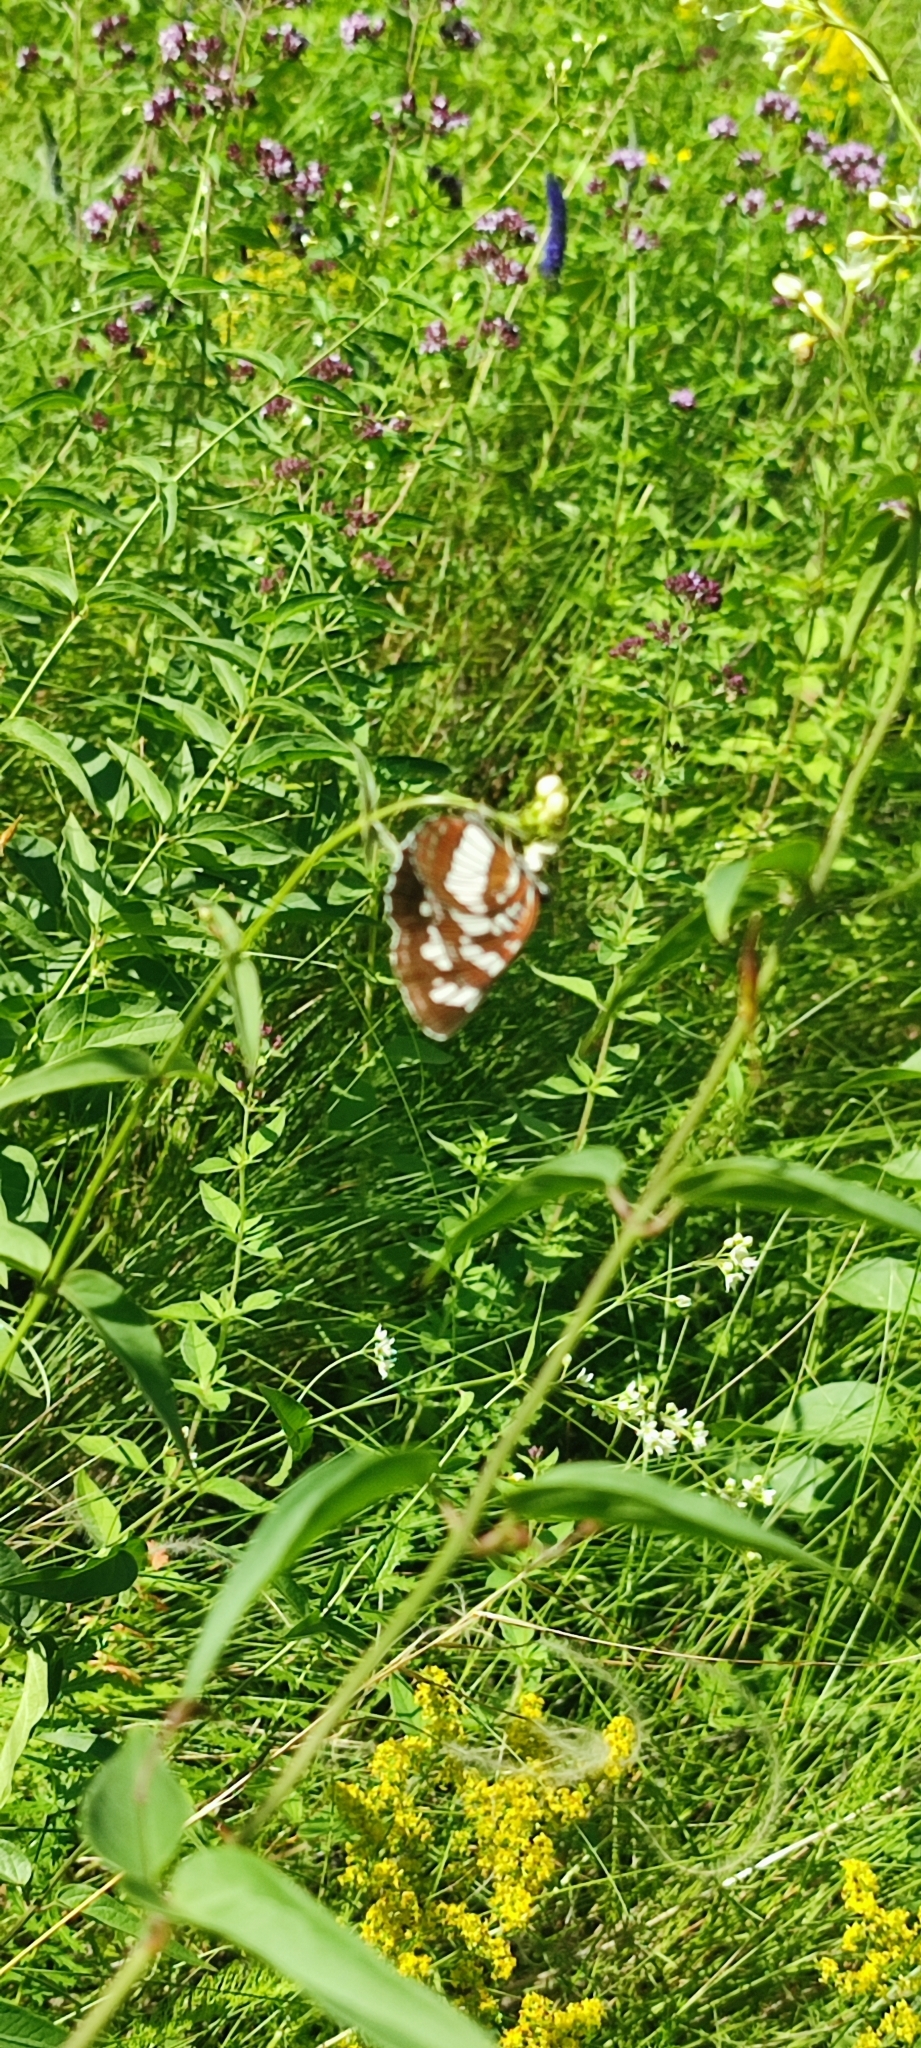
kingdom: Animalia
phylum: Arthropoda
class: Insecta
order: Lepidoptera
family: Nymphalidae
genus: Neptis
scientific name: Neptis rivularis
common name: Hungarian glider
